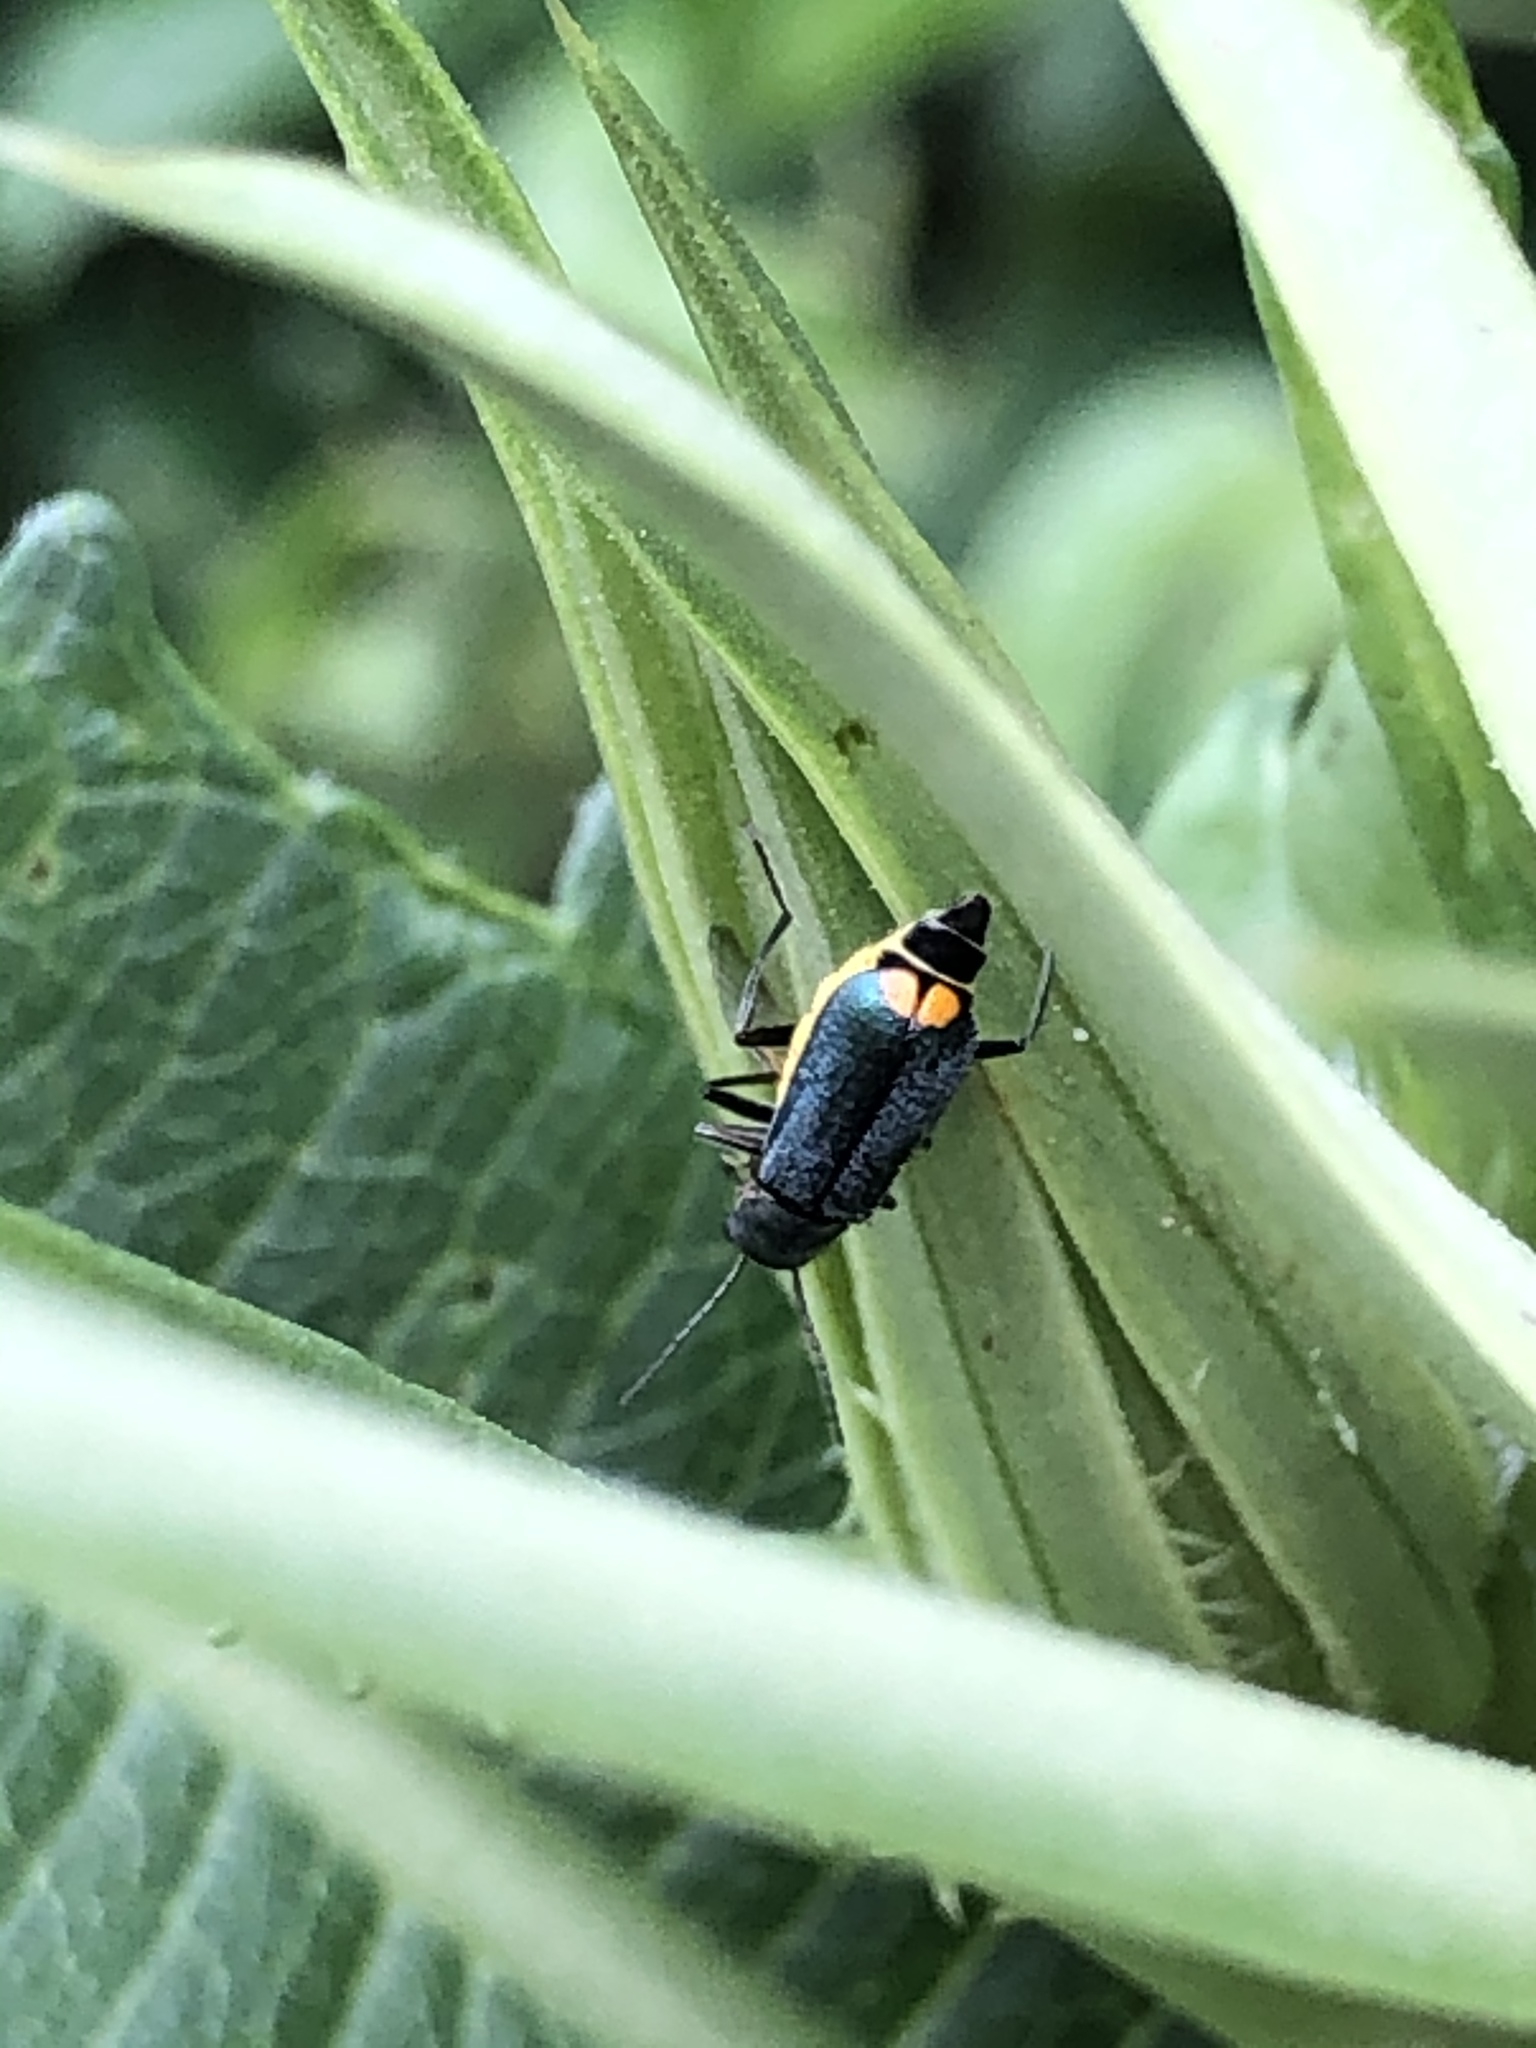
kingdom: Animalia
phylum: Arthropoda
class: Insecta
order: Coleoptera
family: Melyridae
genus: Malachius
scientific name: Malachius bipustulatus
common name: Malachite beetle
